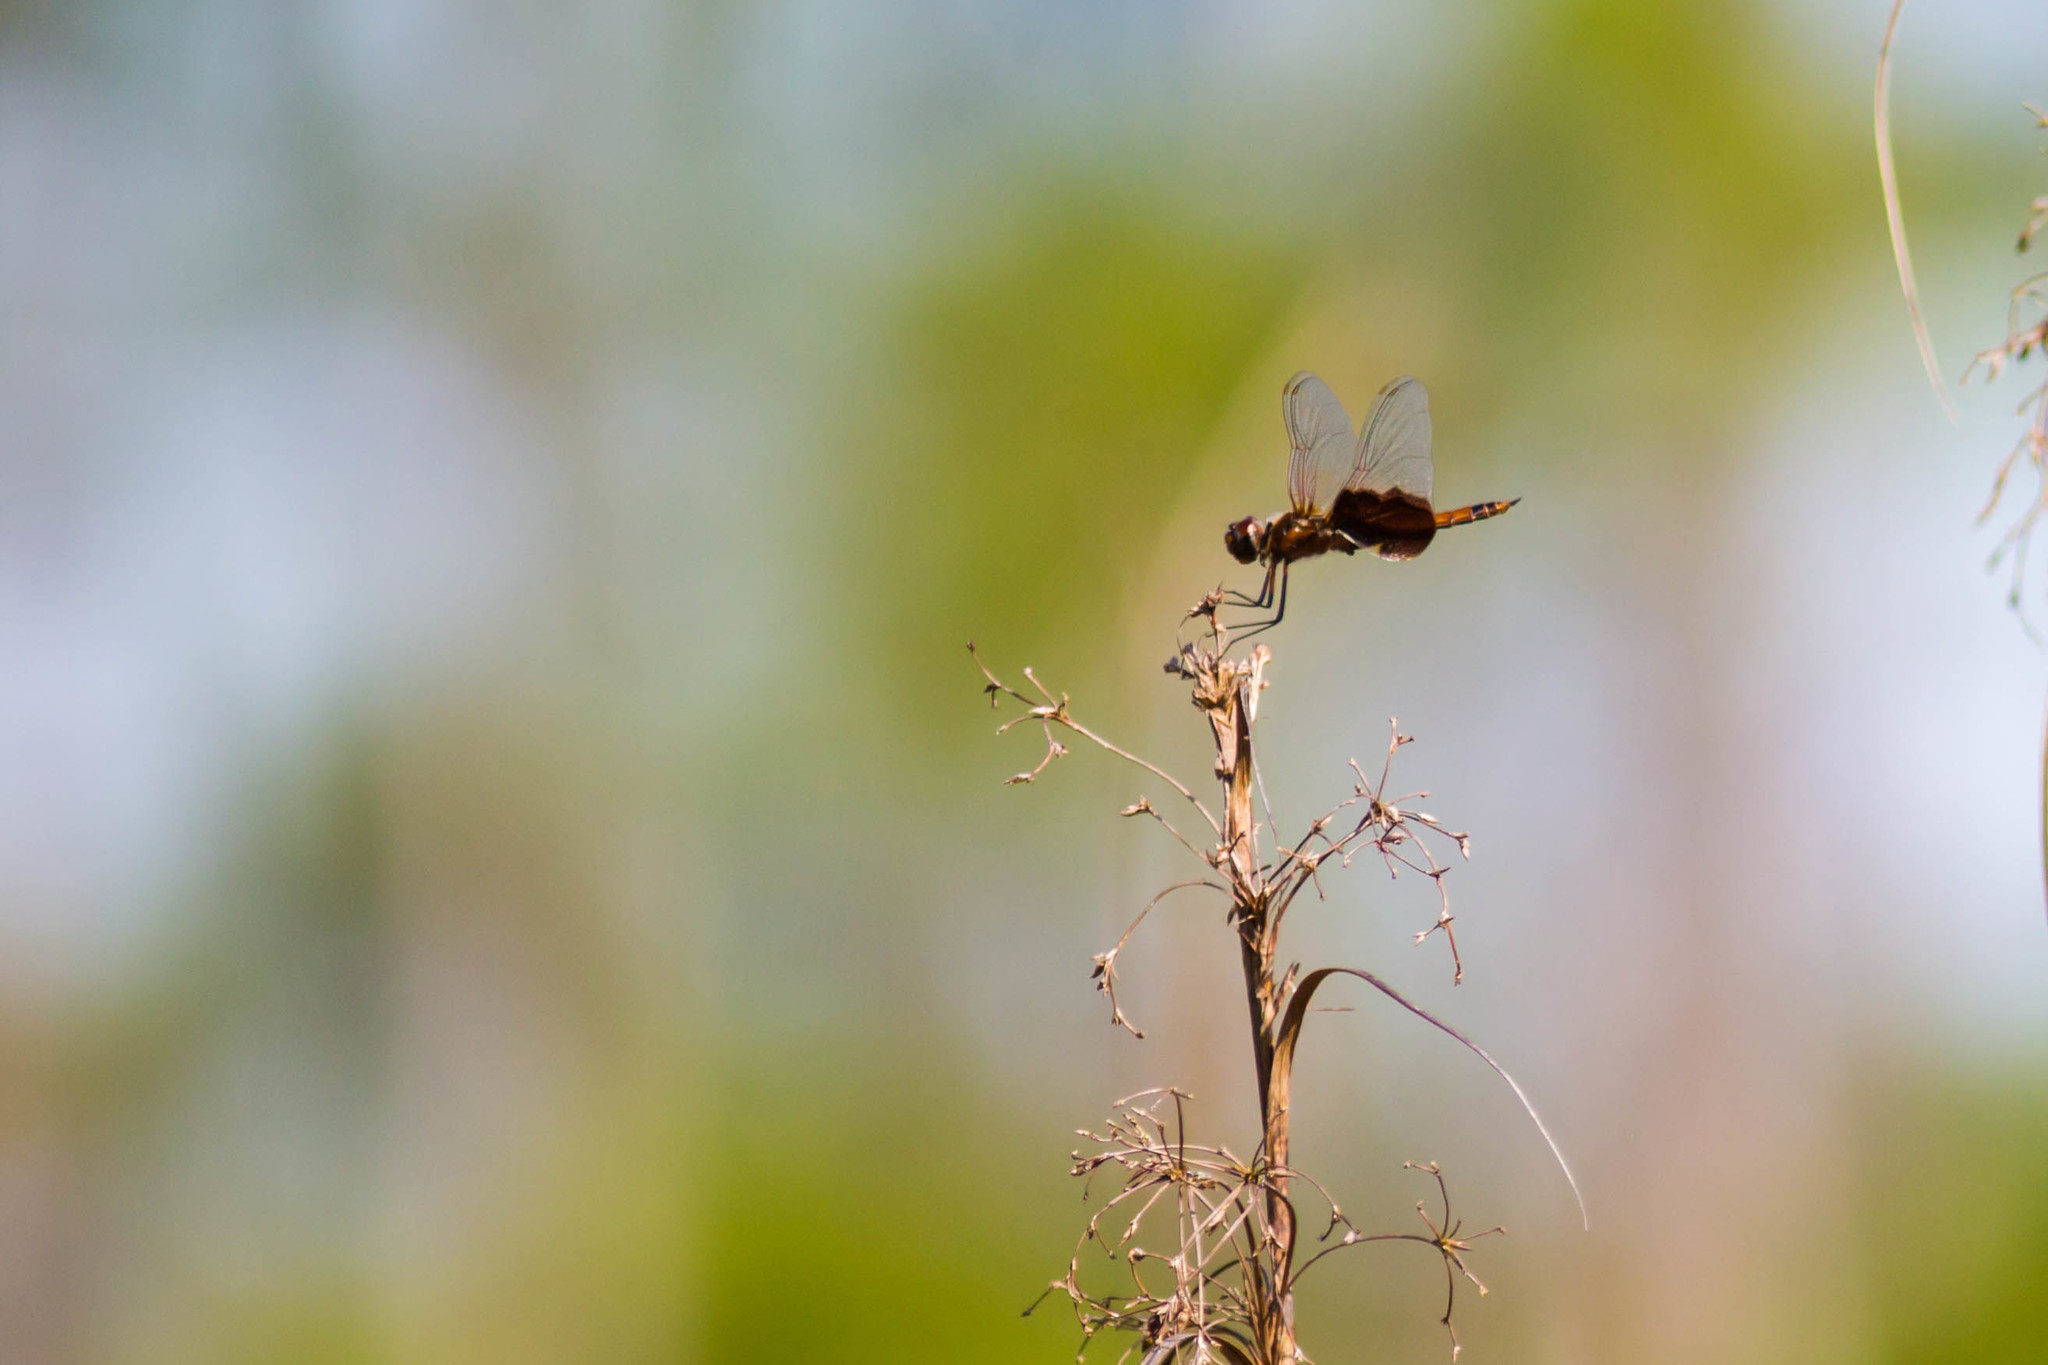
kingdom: Animalia
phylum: Arthropoda
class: Insecta
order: Odonata
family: Libellulidae
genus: Tramea
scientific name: Tramea carolina
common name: Carolina saddlebags
